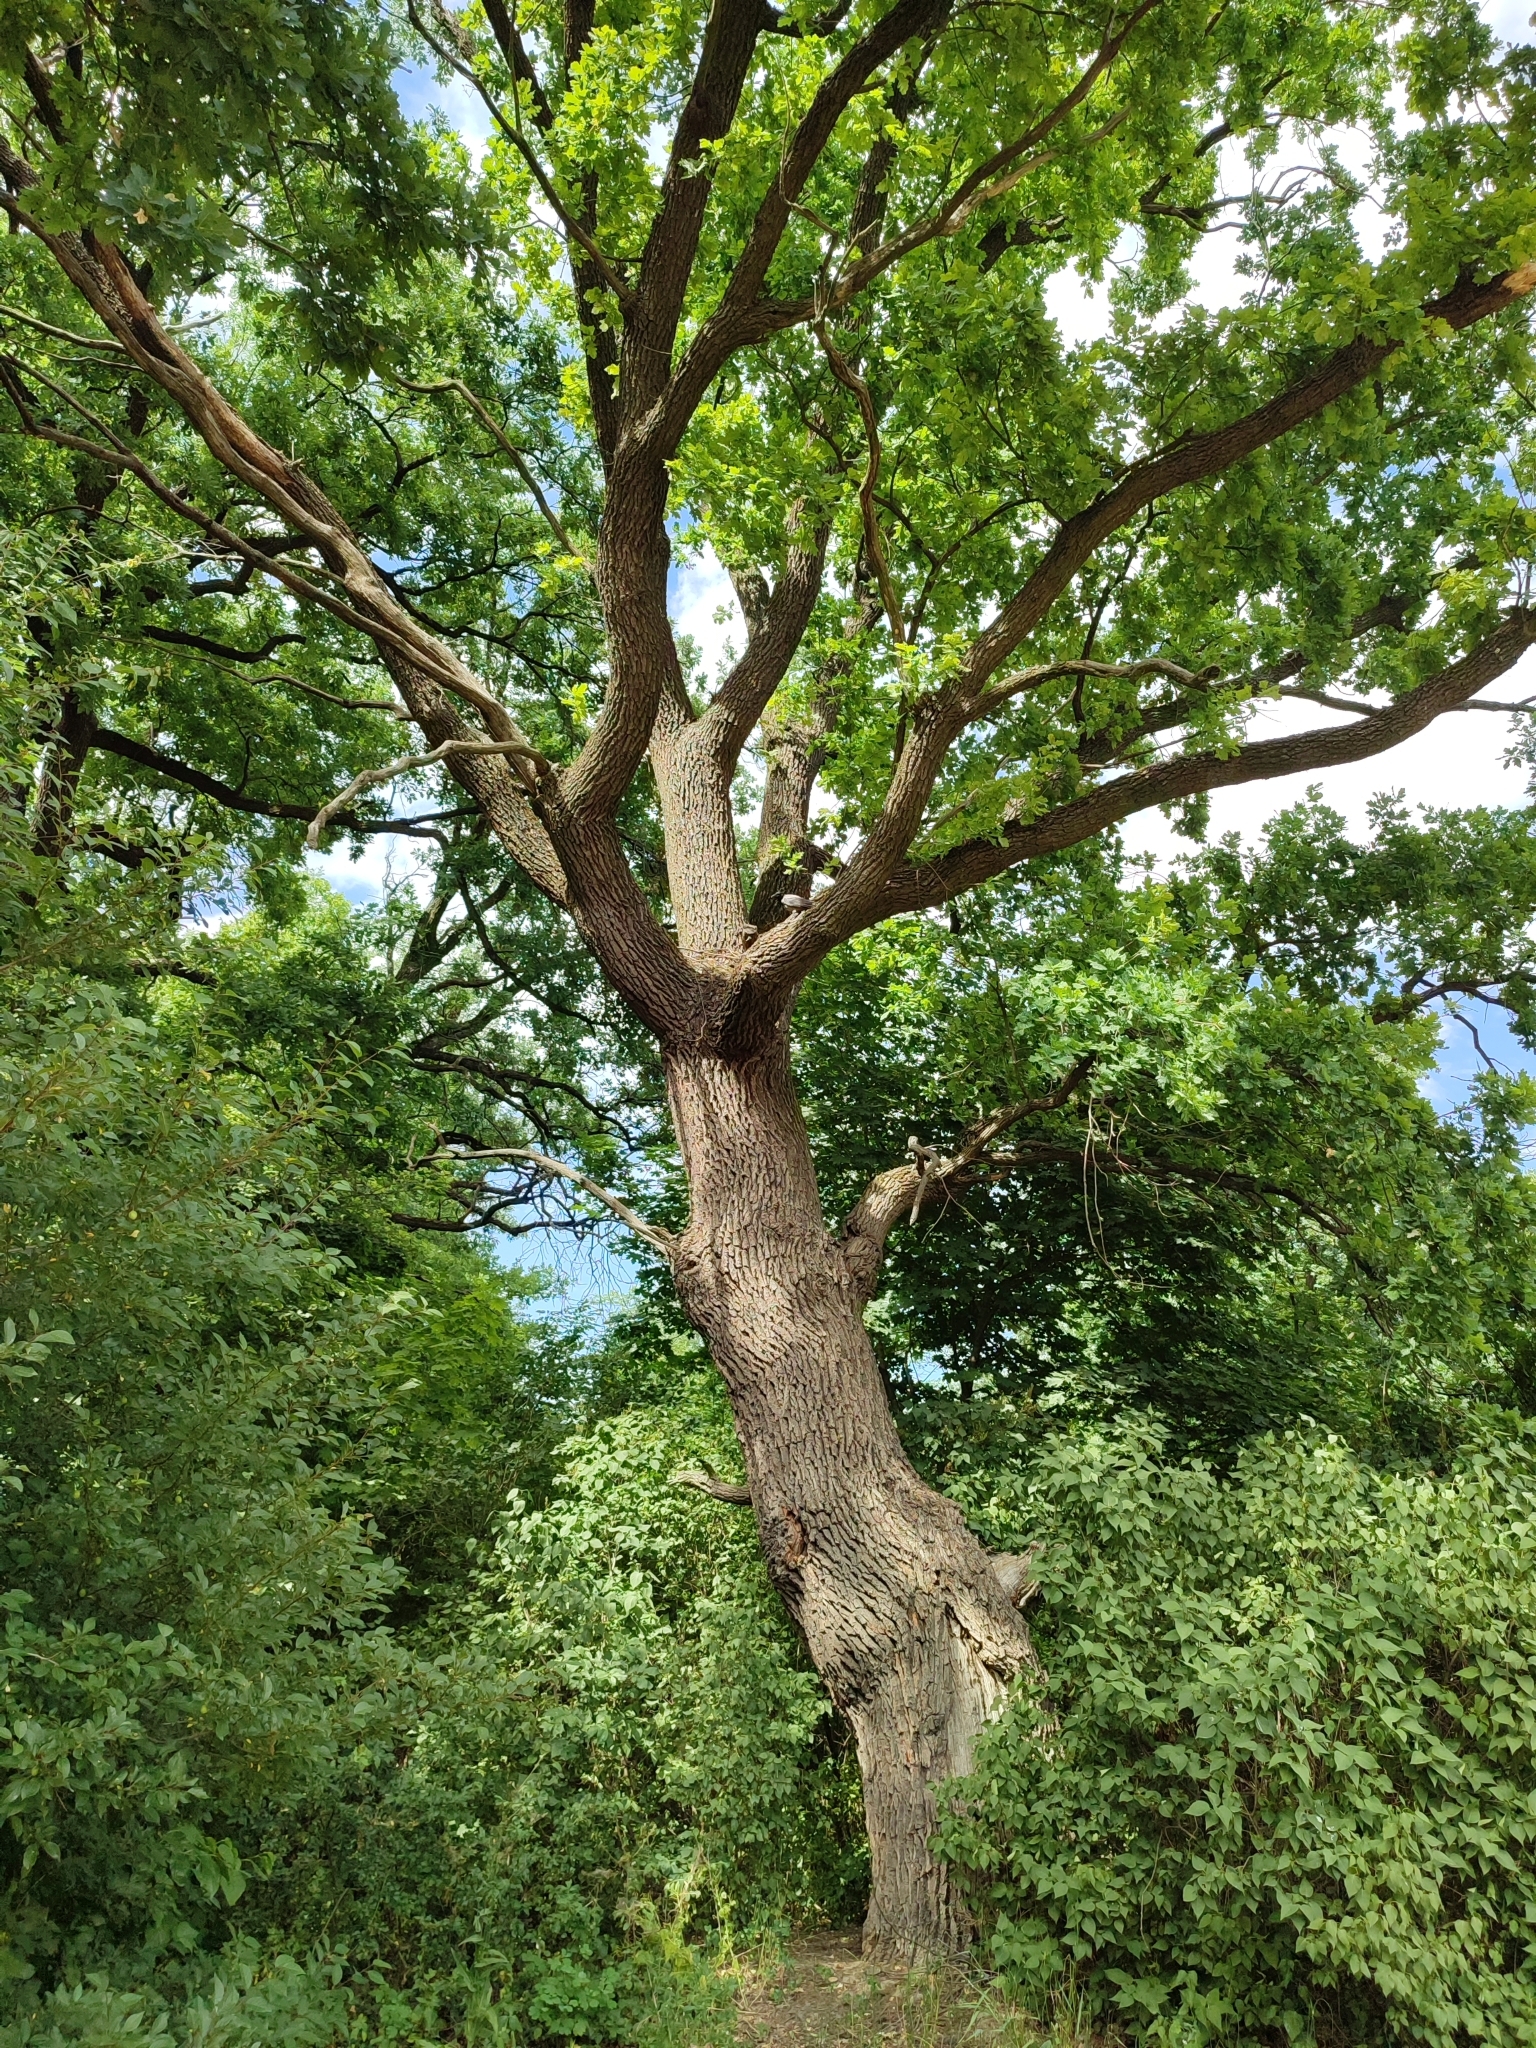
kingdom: Plantae
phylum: Tracheophyta
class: Magnoliopsida
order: Fagales
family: Fagaceae
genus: Quercus
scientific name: Quercus robur
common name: Pedunculate oak
